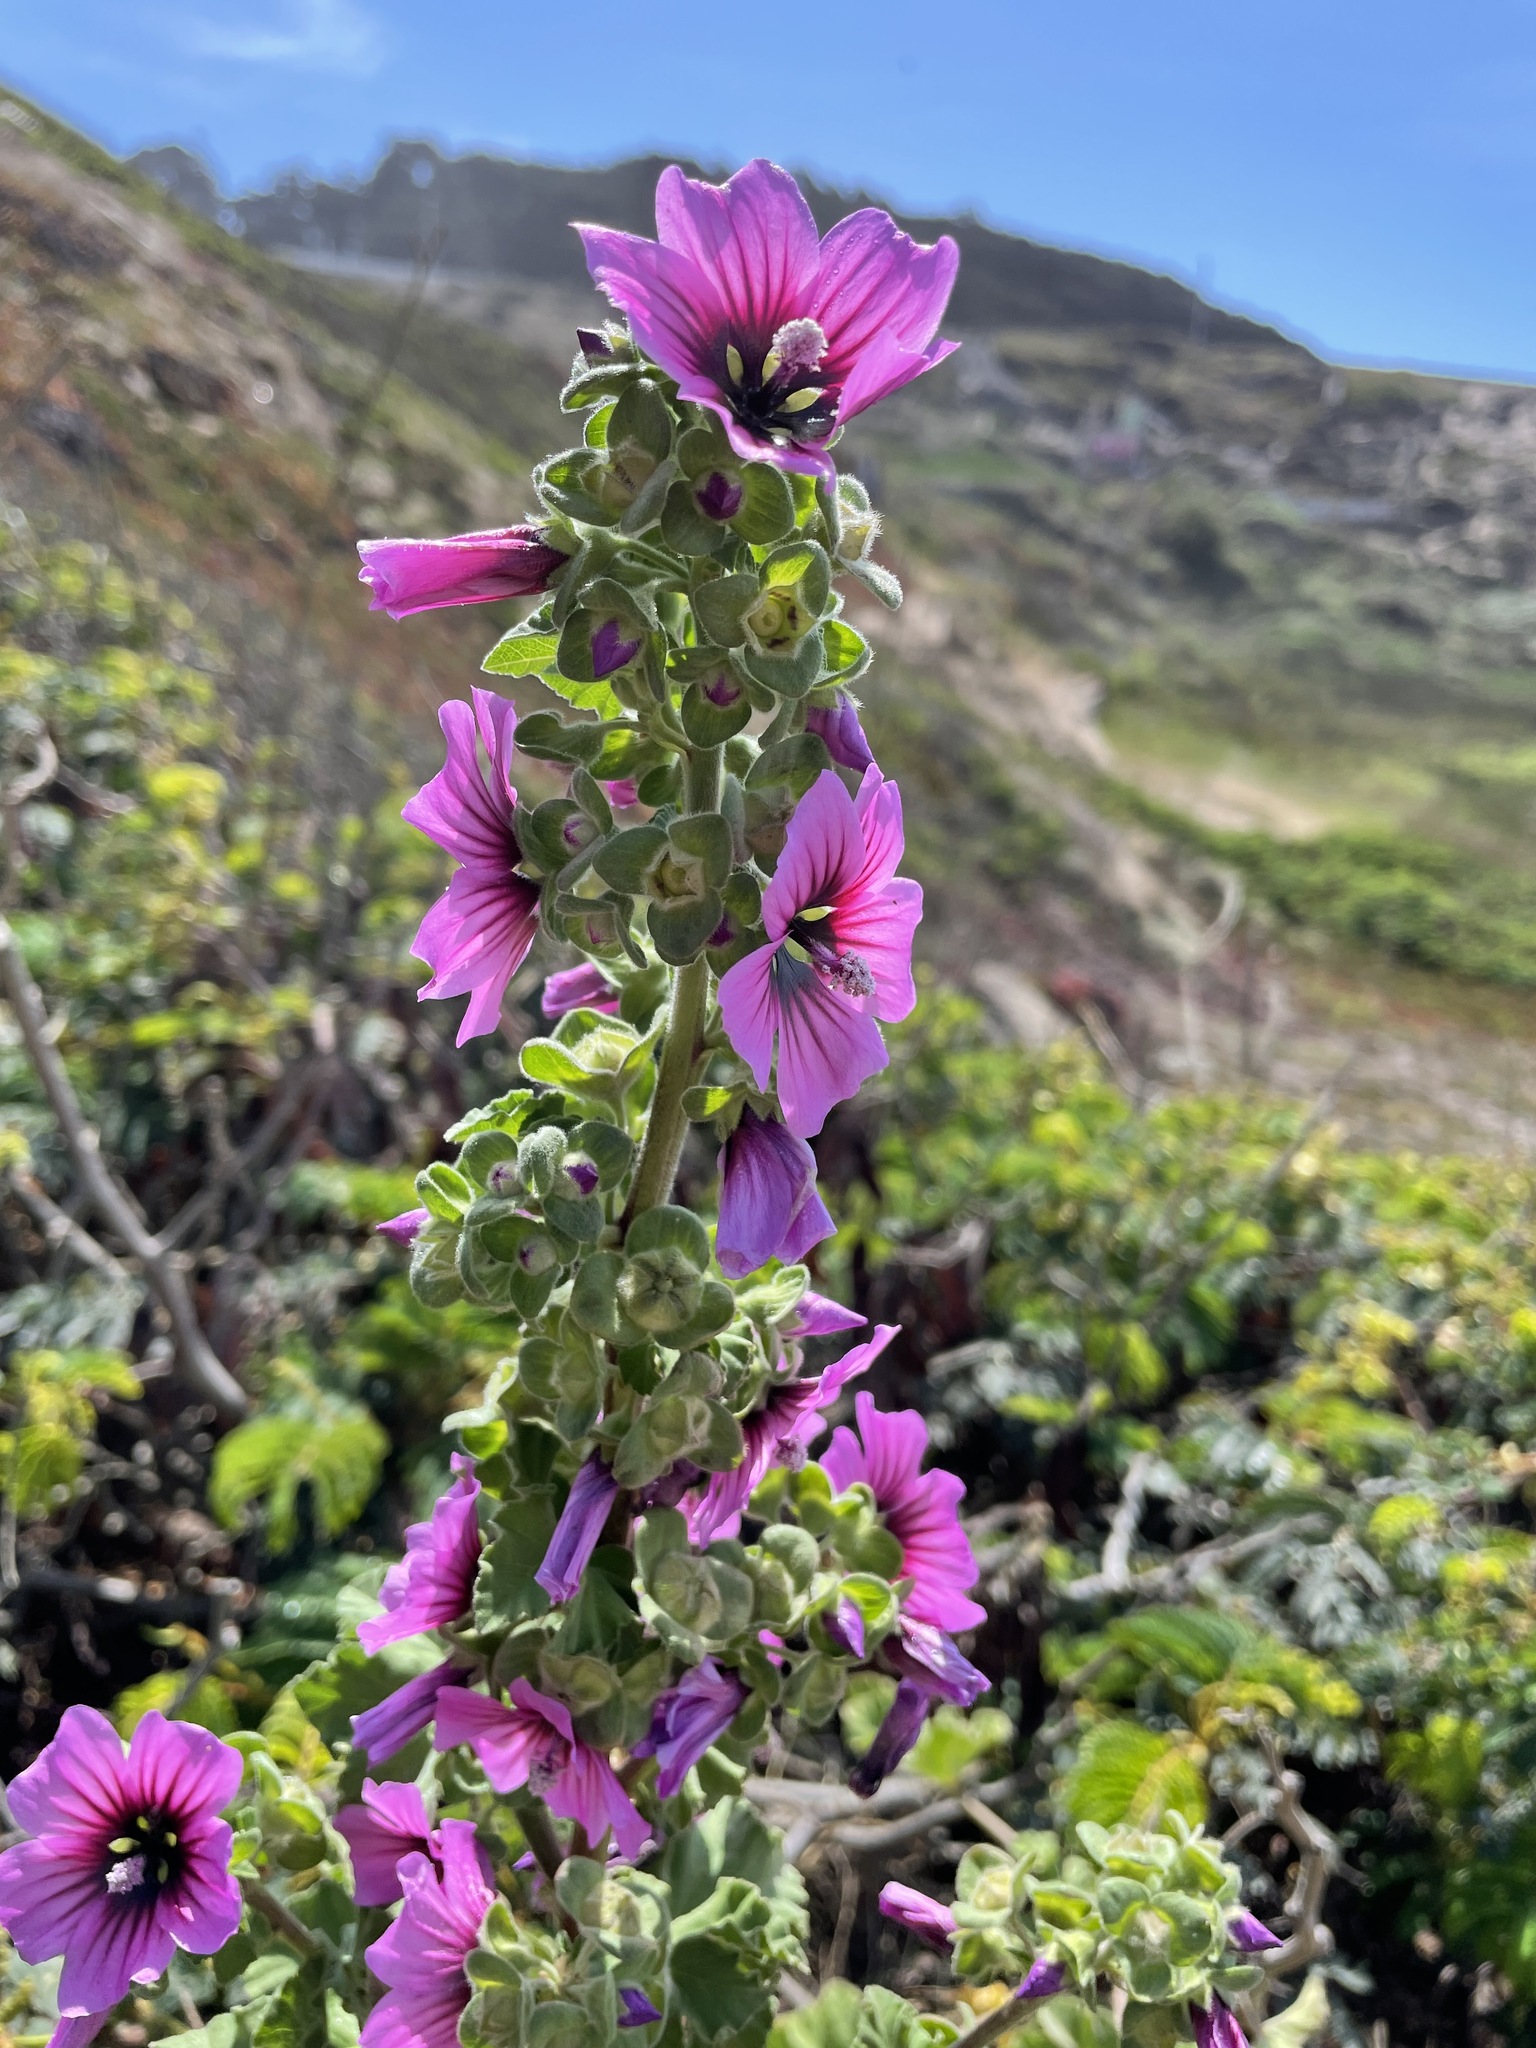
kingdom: Plantae
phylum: Tracheophyta
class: Magnoliopsida
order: Malvales
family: Malvaceae
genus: Malva
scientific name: Malva arborea
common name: Tree mallow
